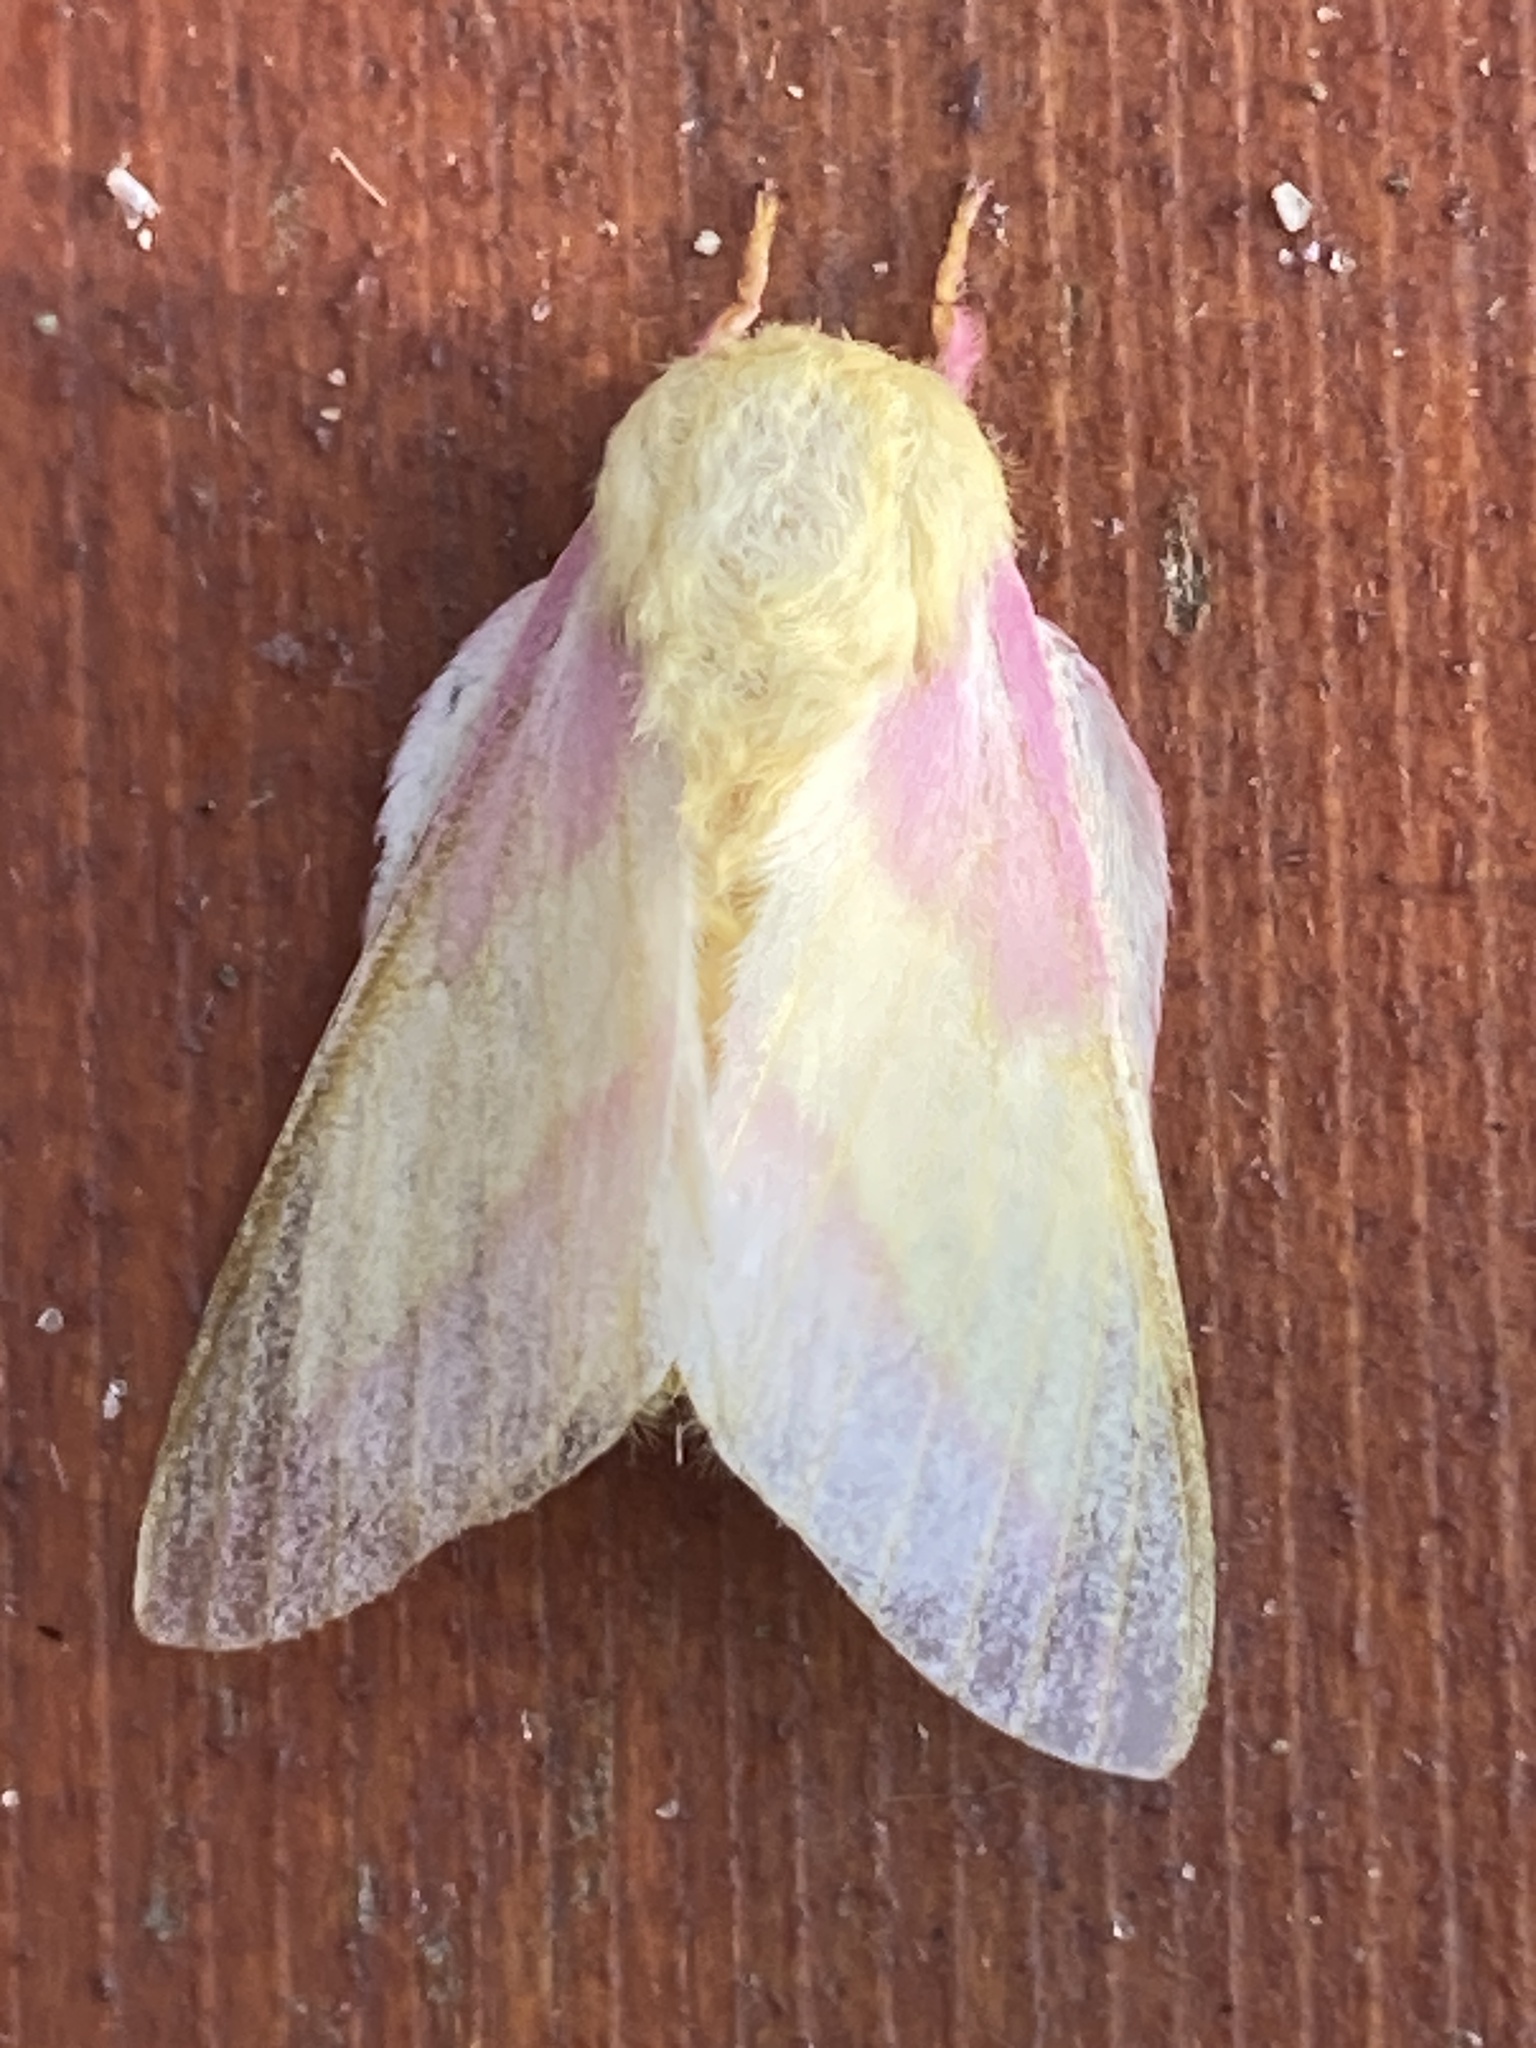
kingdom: Animalia
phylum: Arthropoda
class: Insecta
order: Lepidoptera
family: Saturniidae
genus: Dryocampa
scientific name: Dryocampa rubicunda
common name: Rosy maple moth
